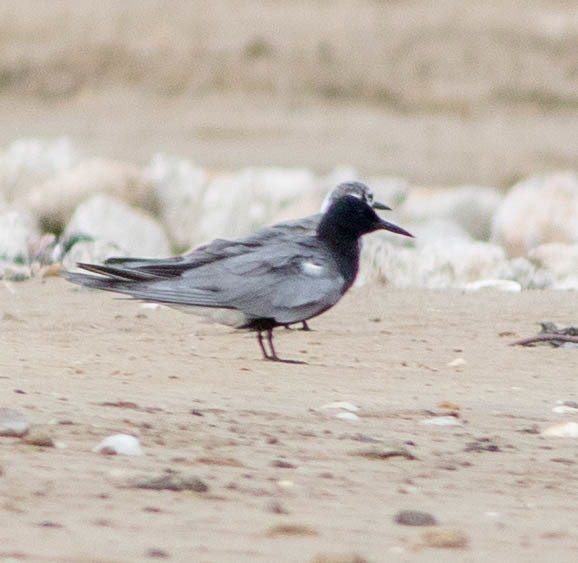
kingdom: Animalia
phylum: Chordata
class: Aves
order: Charadriiformes
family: Laridae
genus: Chlidonias
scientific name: Chlidonias niger
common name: Black tern
